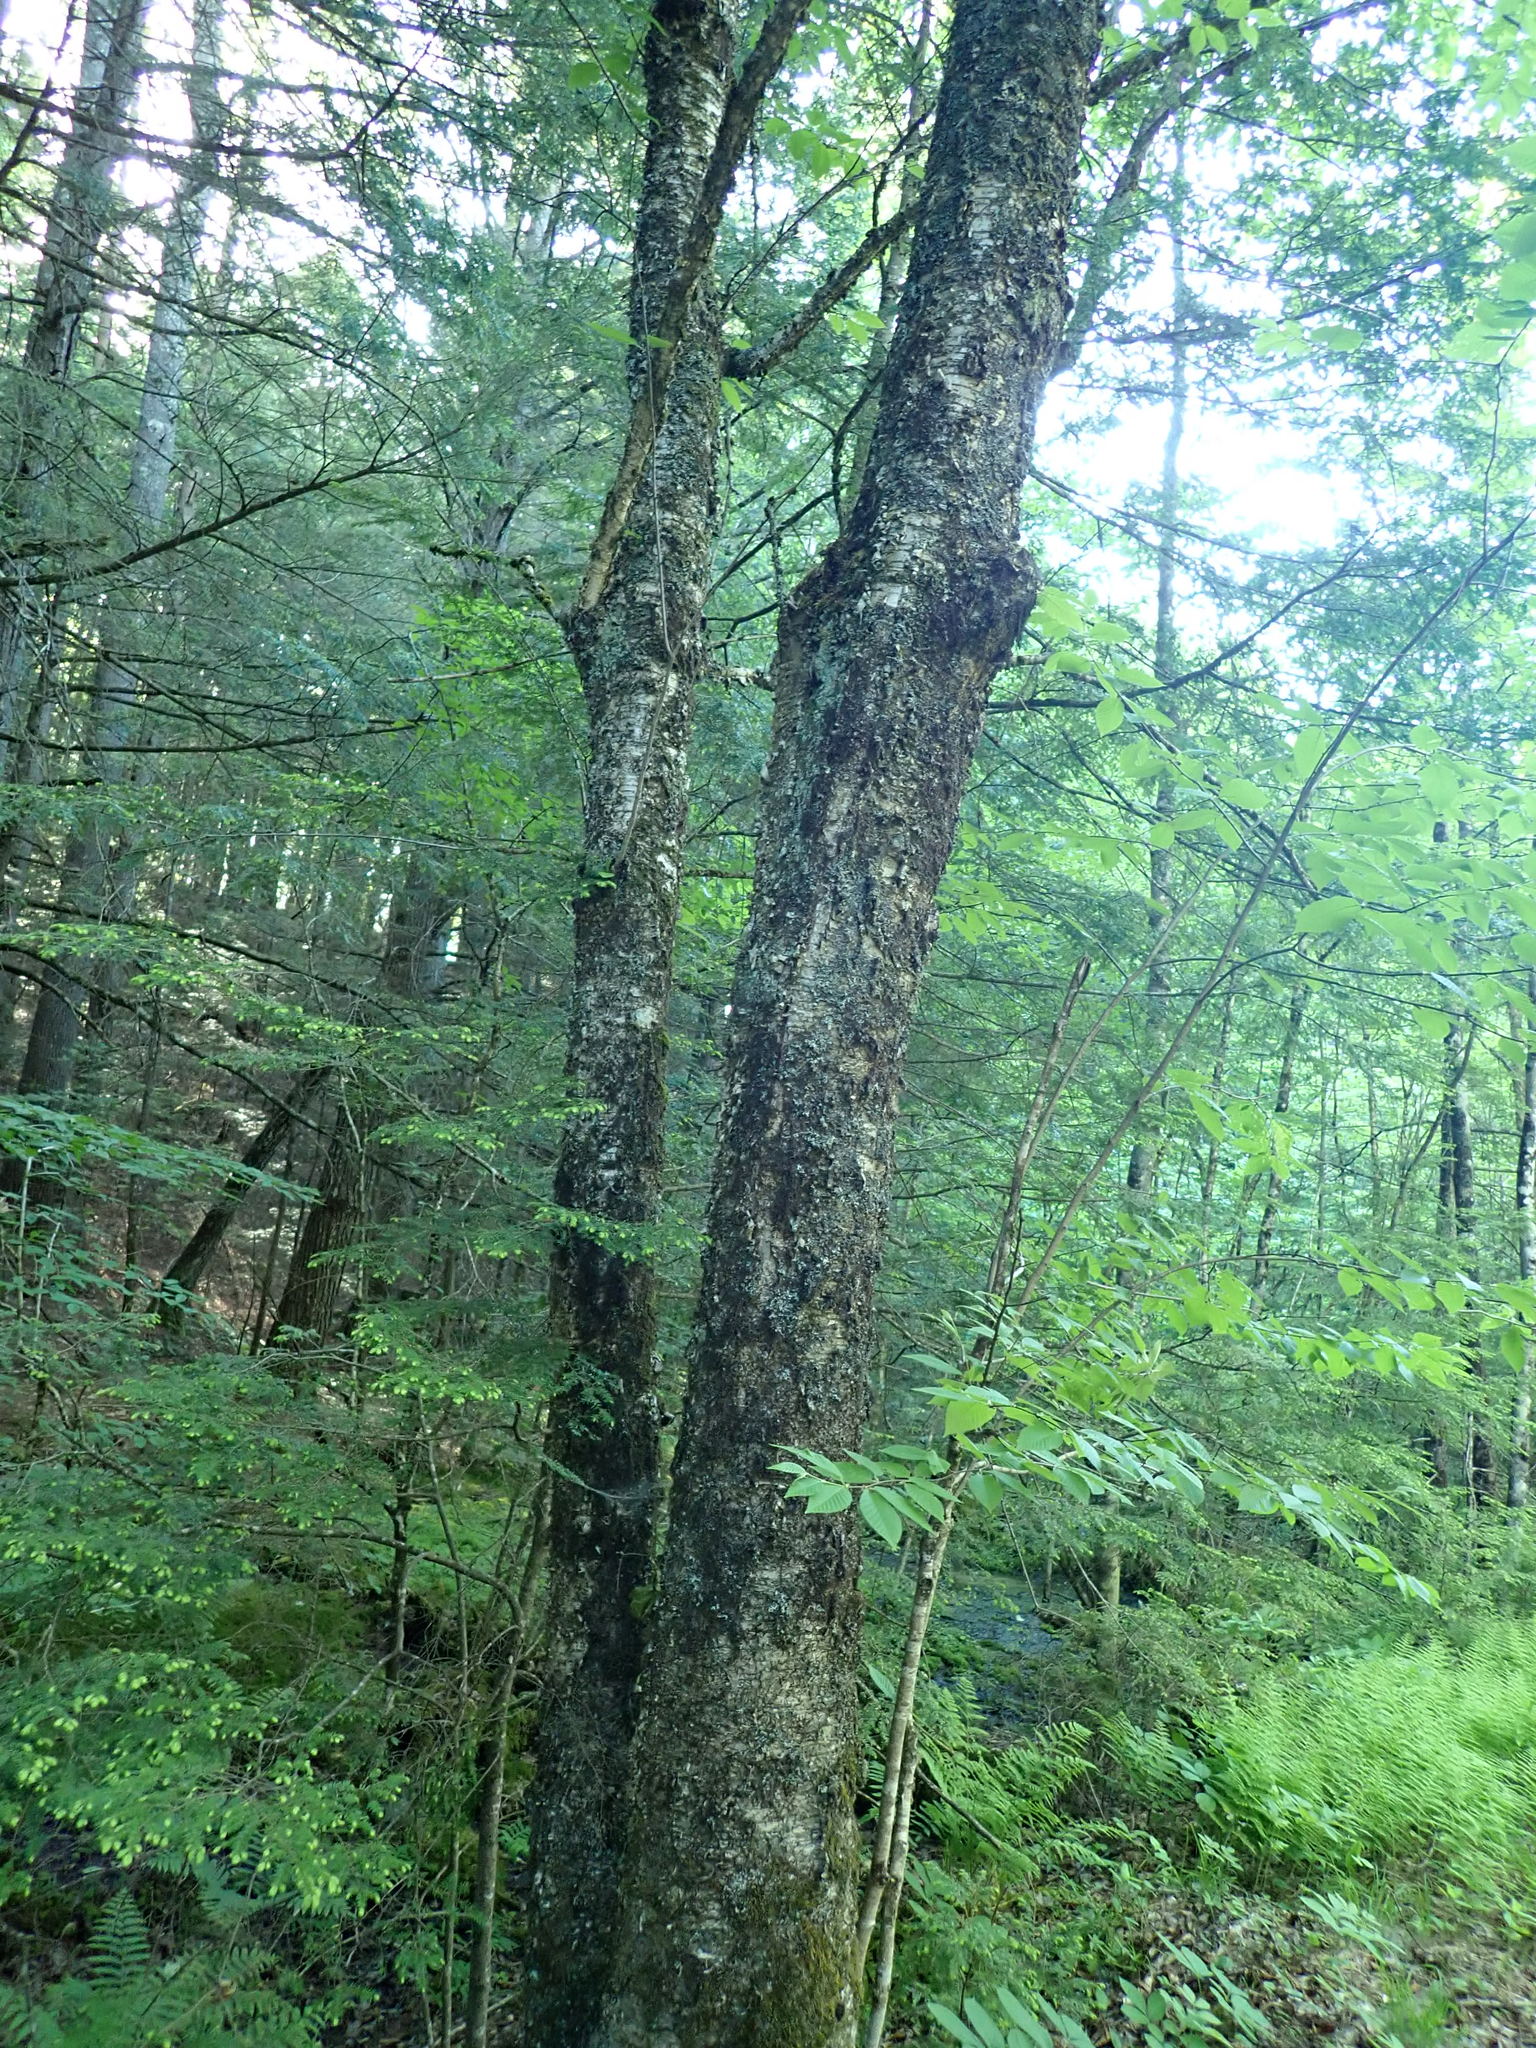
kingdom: Plantae
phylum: Tracheophyta
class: Magnoliopsida
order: Fagales
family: Betulaceae
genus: Betula
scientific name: Betula alleghaniensis
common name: Yellow birch
